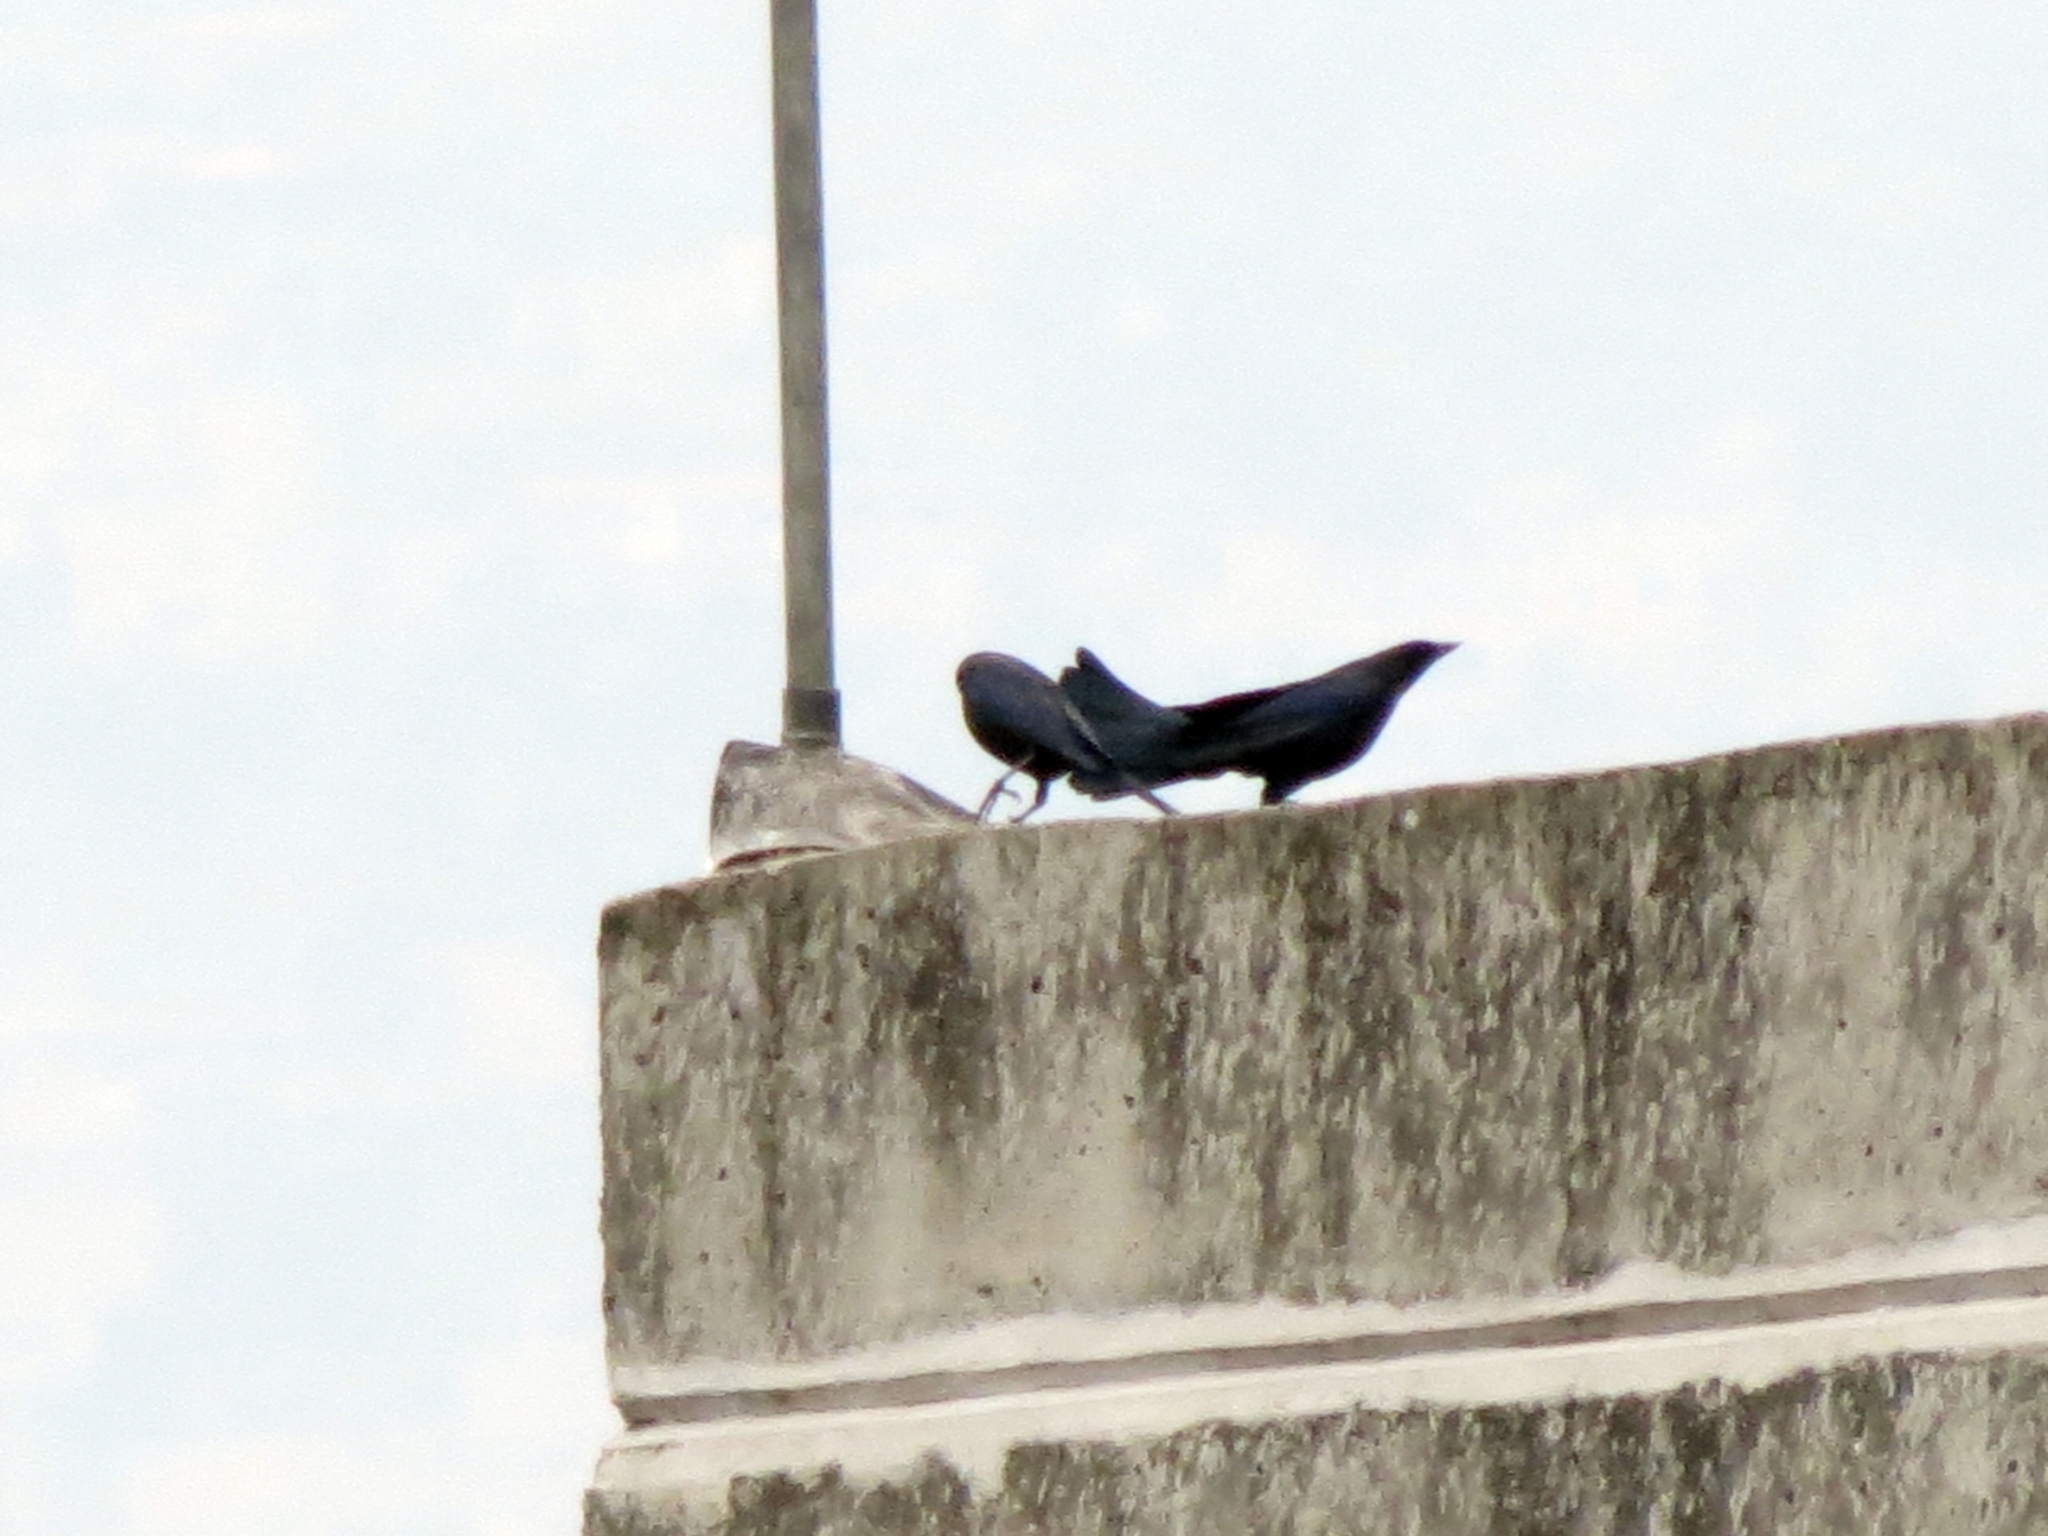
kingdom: Animalia
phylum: Chordata
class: Aves
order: Passeriformes
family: Icteridae
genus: Molothrus
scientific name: Molothrus bonariensis
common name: Shiny cowbird
